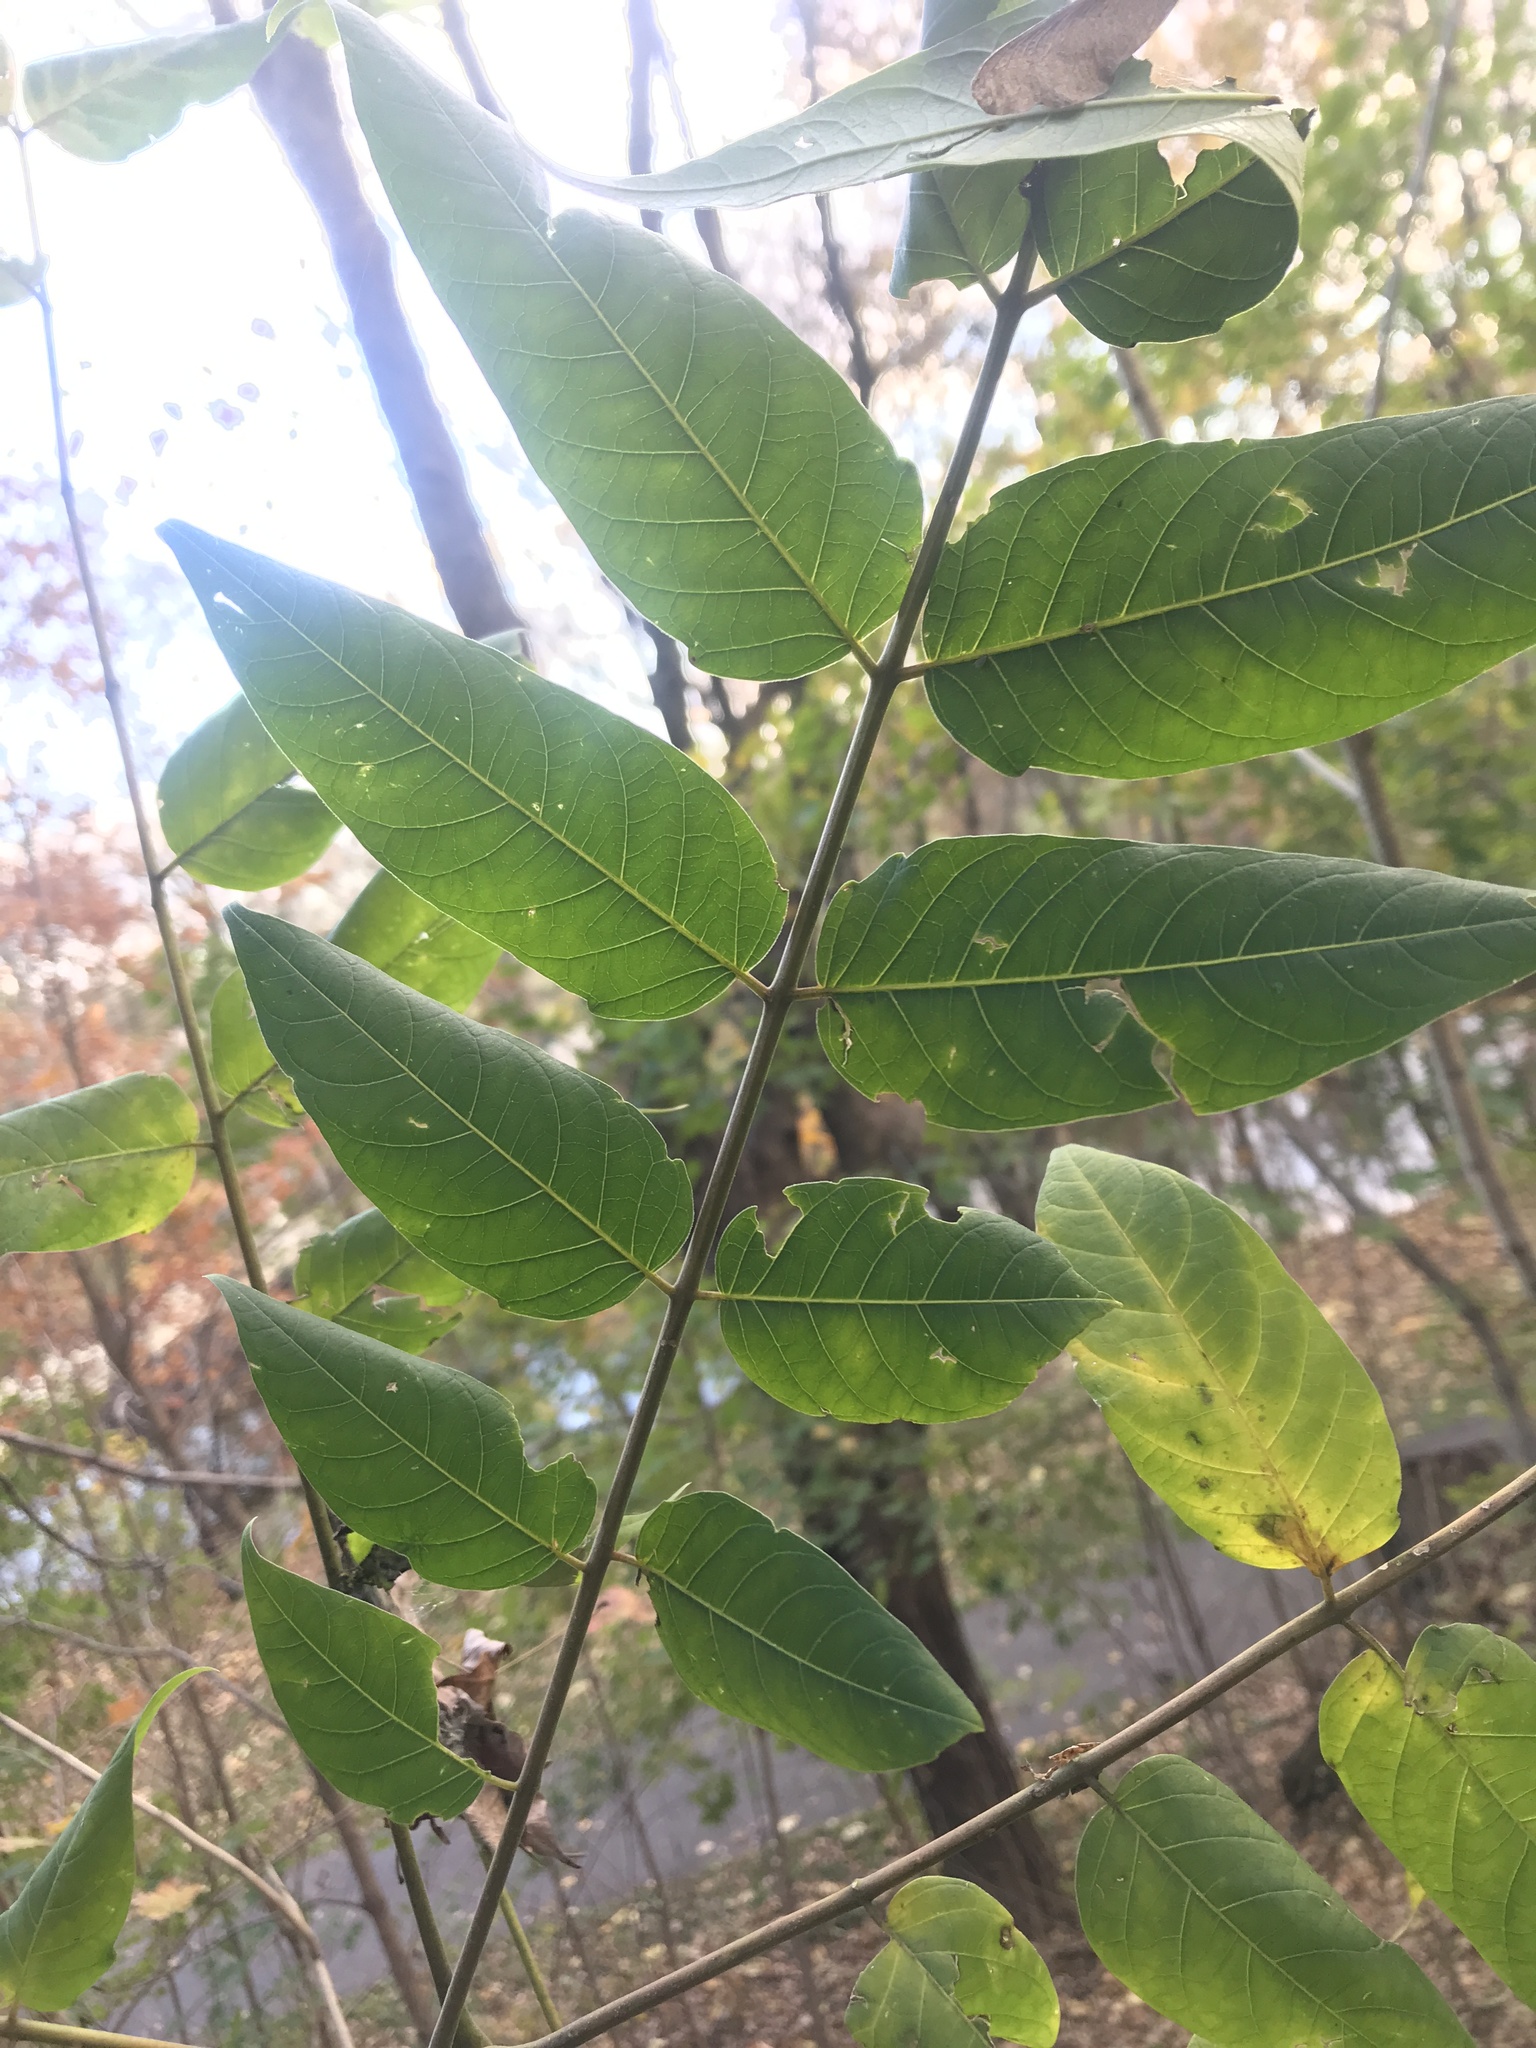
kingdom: Plantae
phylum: Tracheophyta
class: Magnoliopsida
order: Sapindales
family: Simaroubaceae
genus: Ailanthus
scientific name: Ailanthus altissima
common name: Tree-of-heaven
